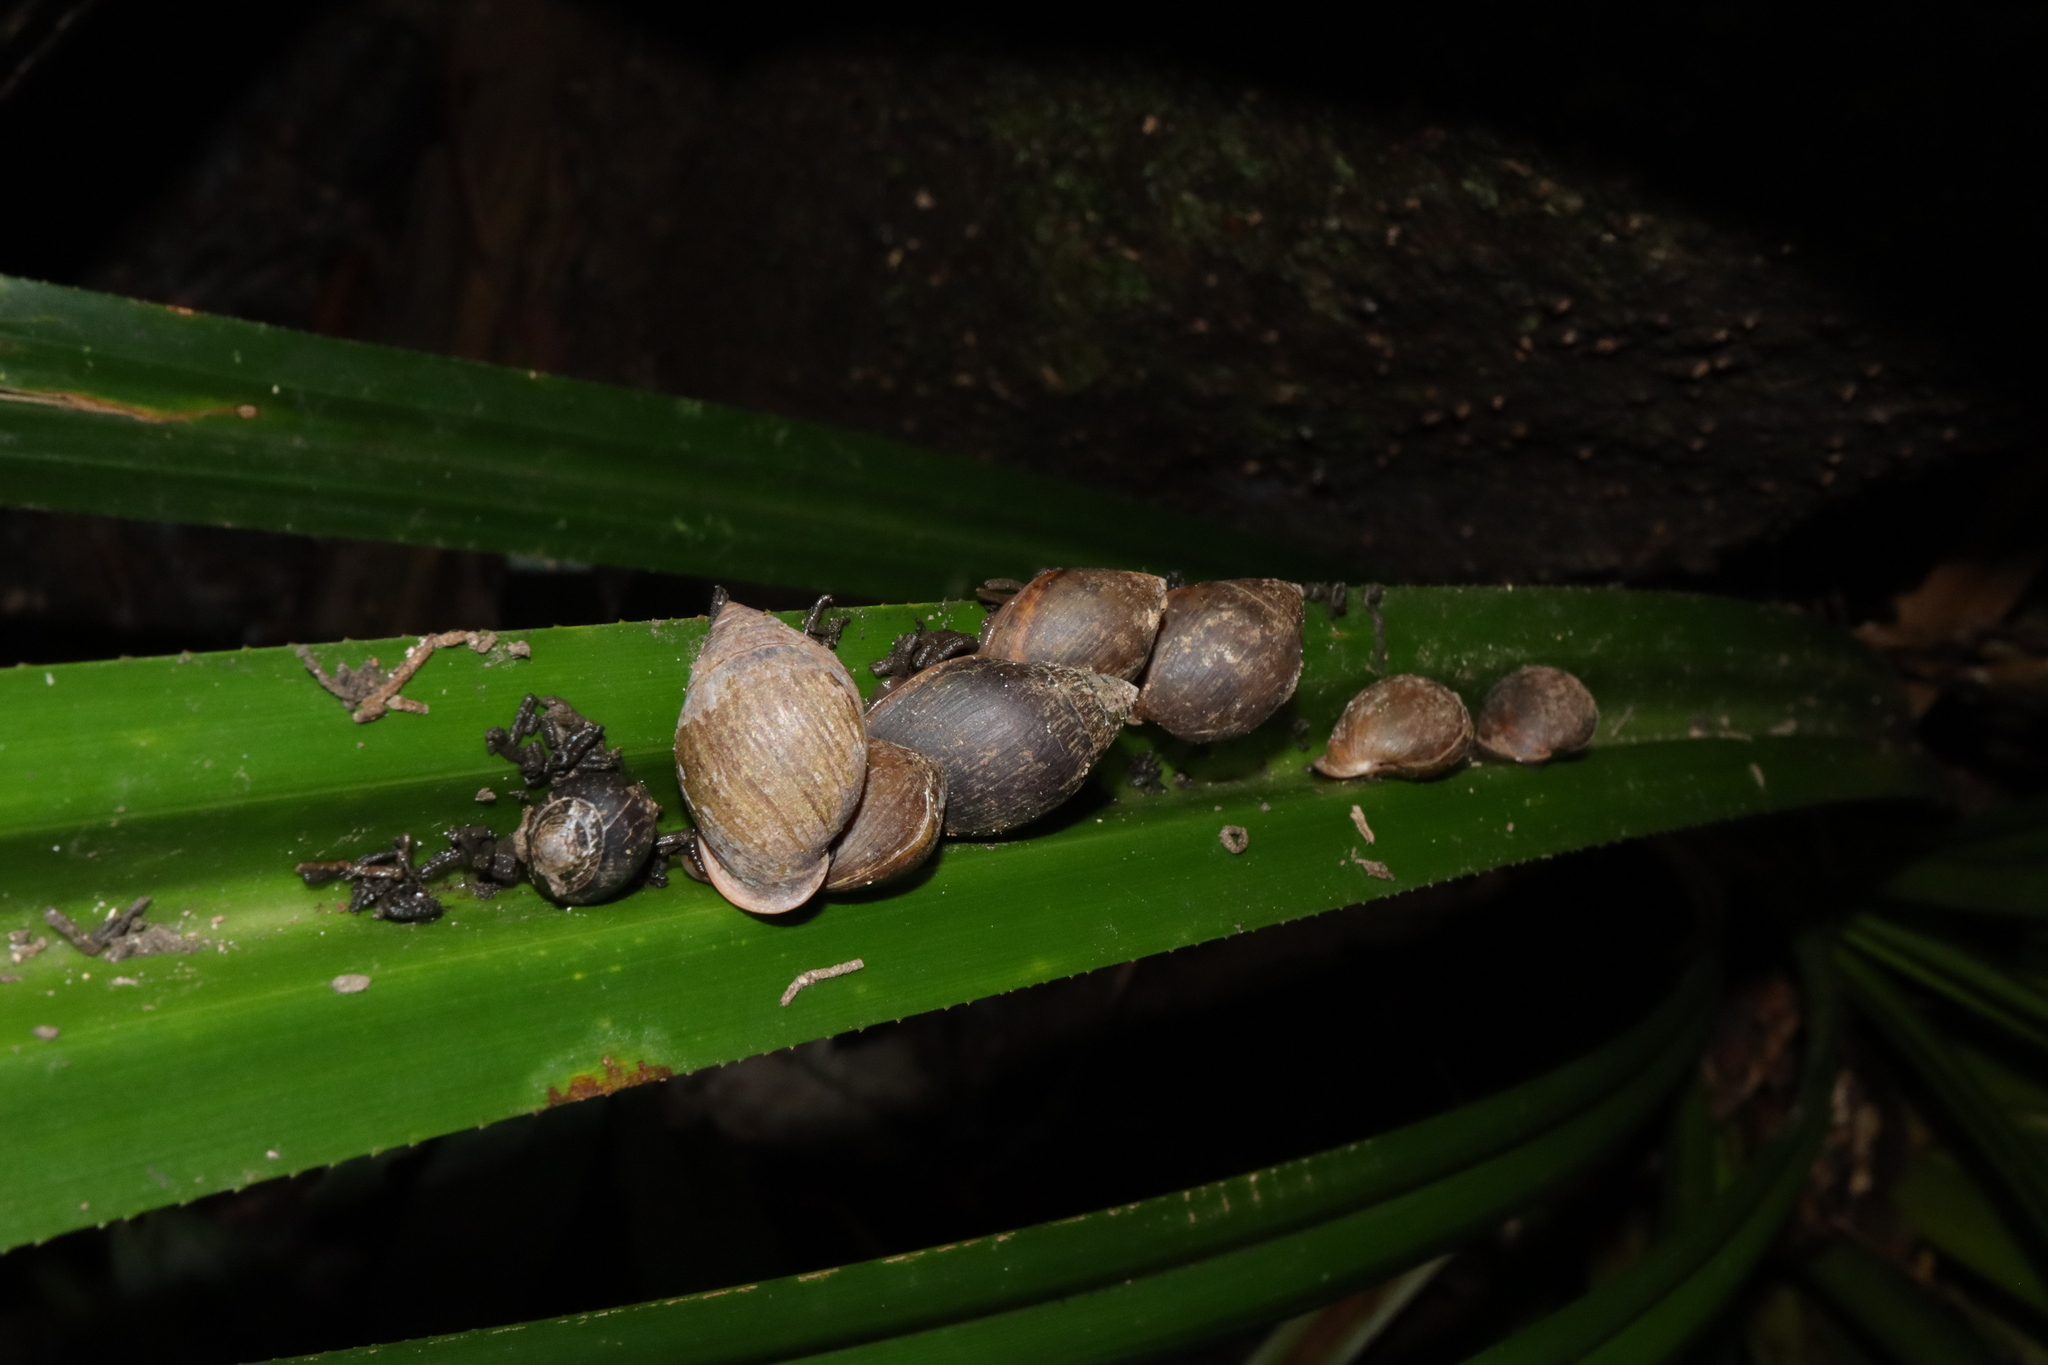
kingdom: Animalia
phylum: Mollusca
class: Gastropoda
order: Ellobiida
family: Ellobiidae
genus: Pythia
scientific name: Pythia scarabaeus
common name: Common pythia
